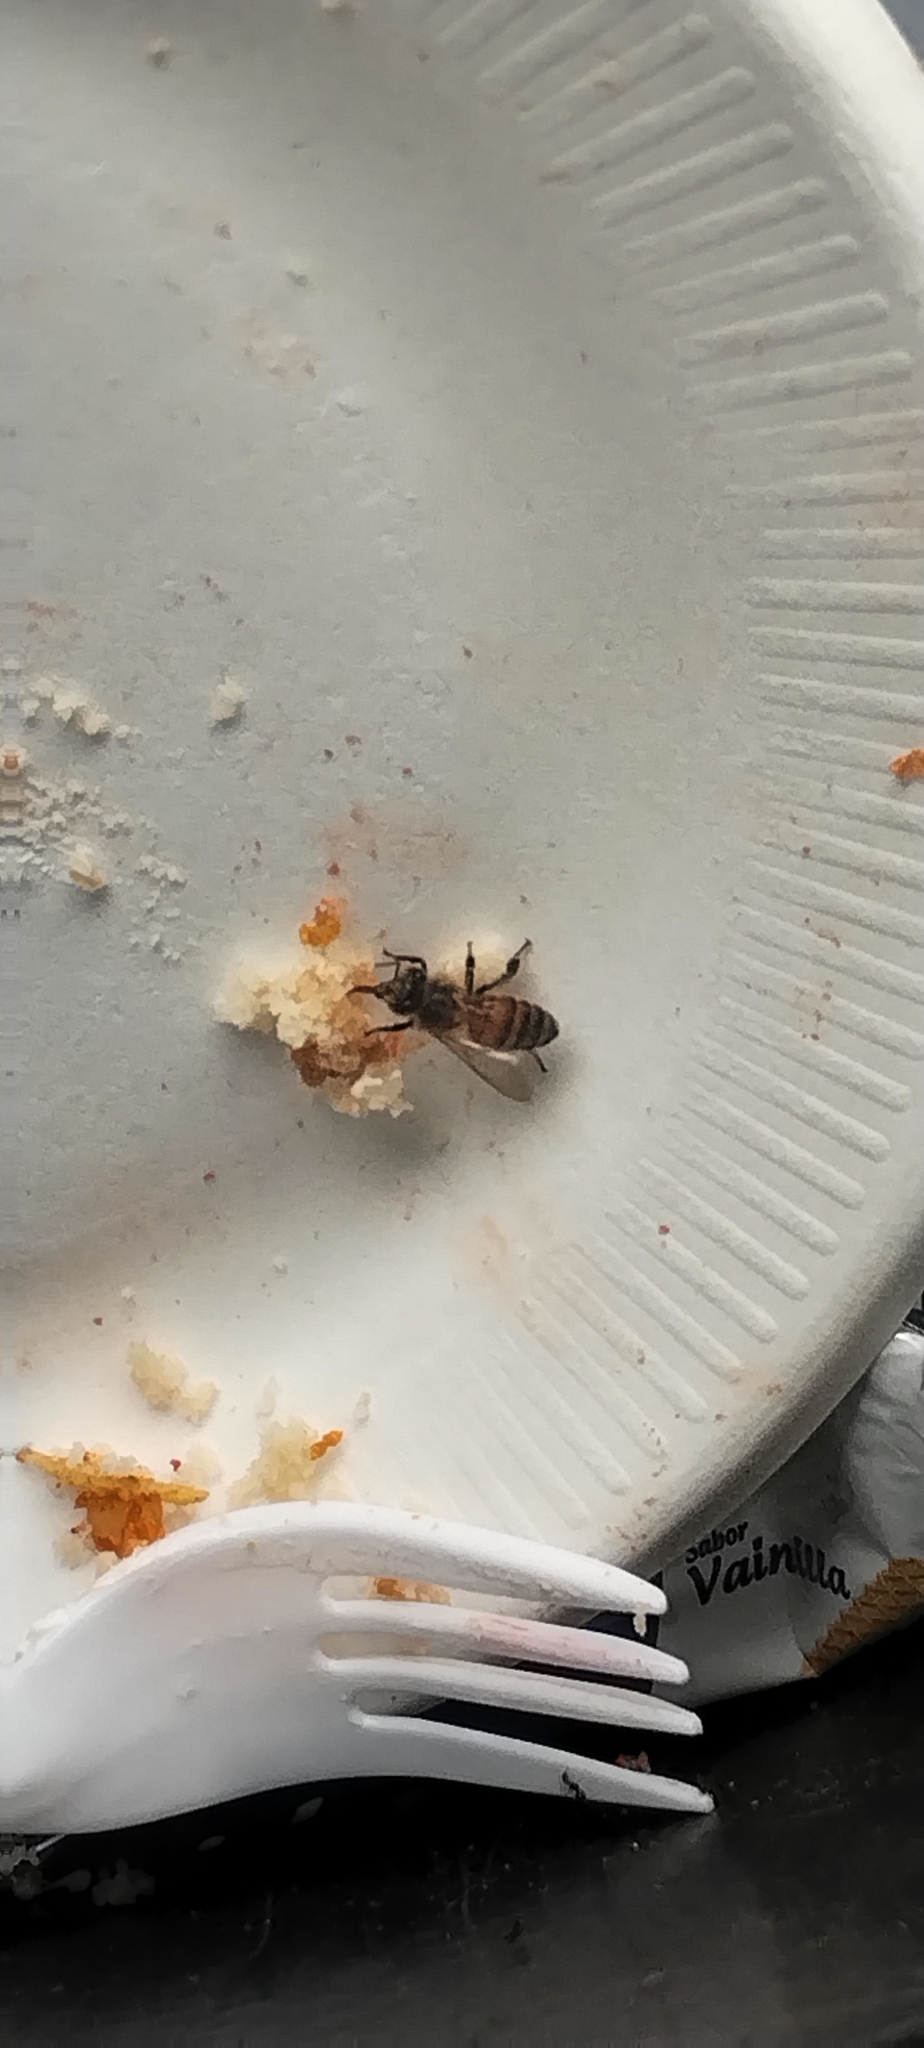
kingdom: Animalia
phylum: Arthropoda
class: Insecta
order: Hymenoptera
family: Apidae
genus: Apis
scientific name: Apis mellifera
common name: Honey bee
